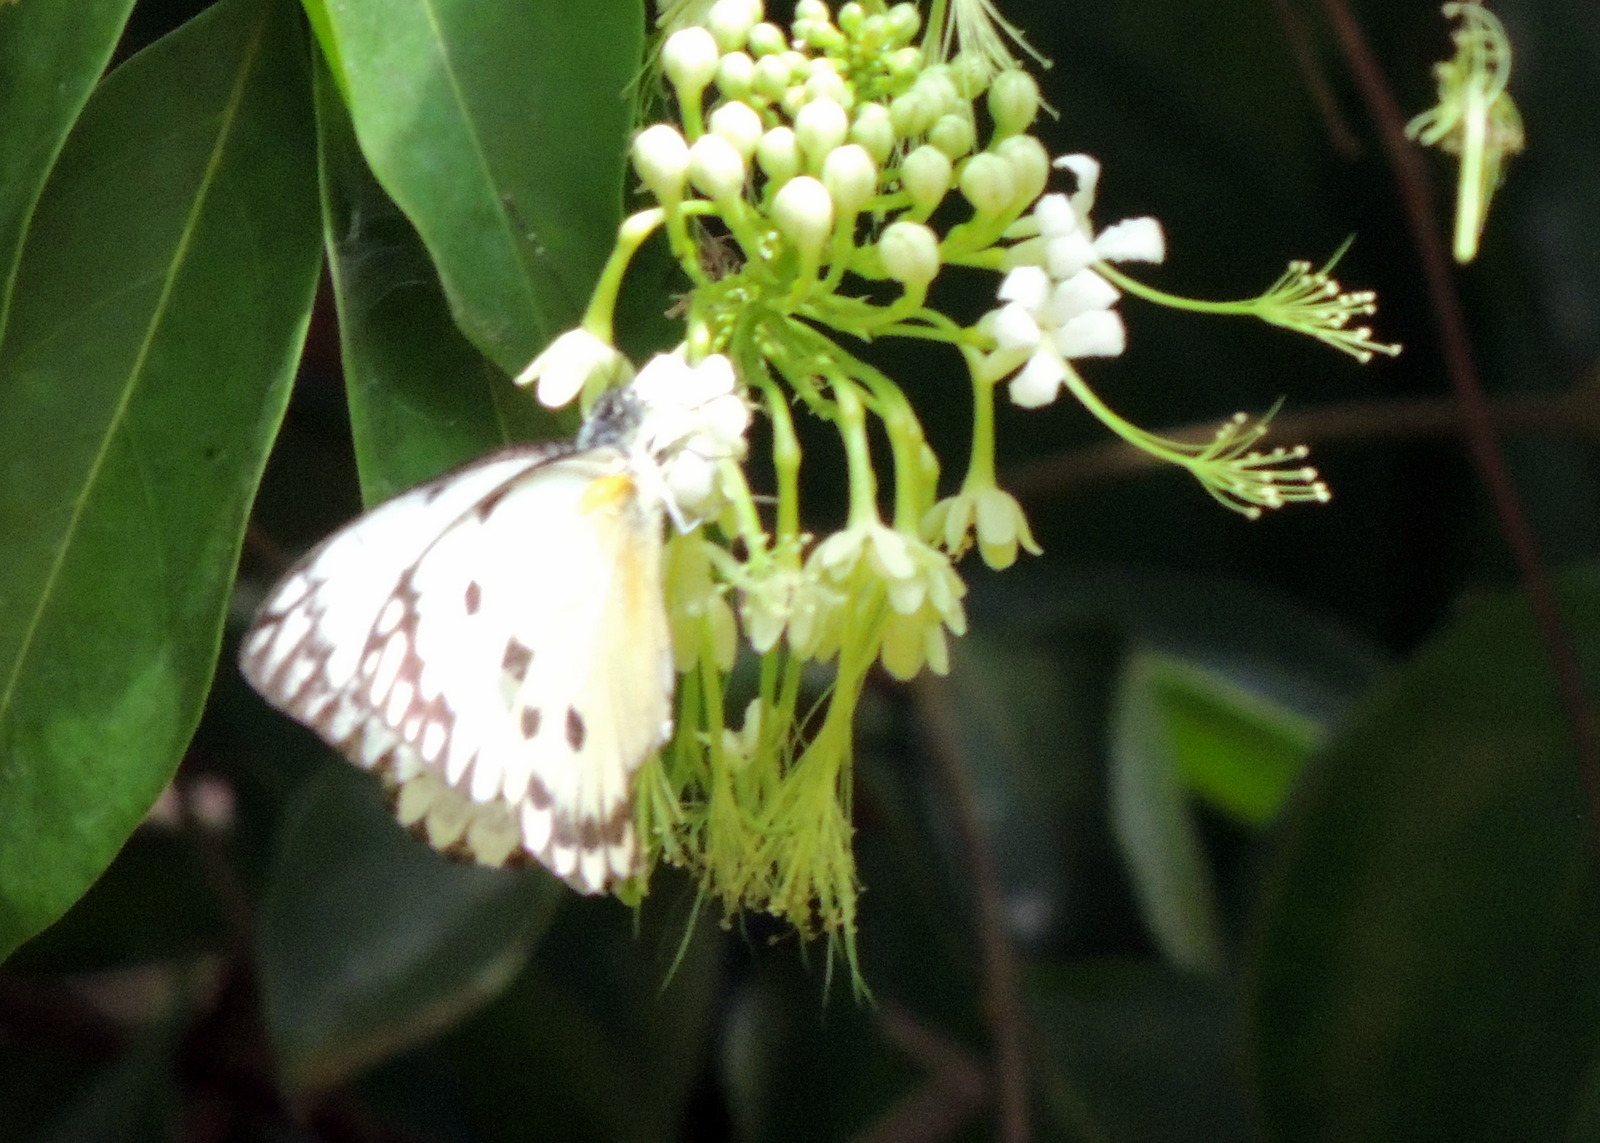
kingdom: Animalia
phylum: Arthropoda
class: Insecta
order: Lepidoptera
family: Pieridae
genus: Belenois
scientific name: Belenois calypso
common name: Calypso caper white
